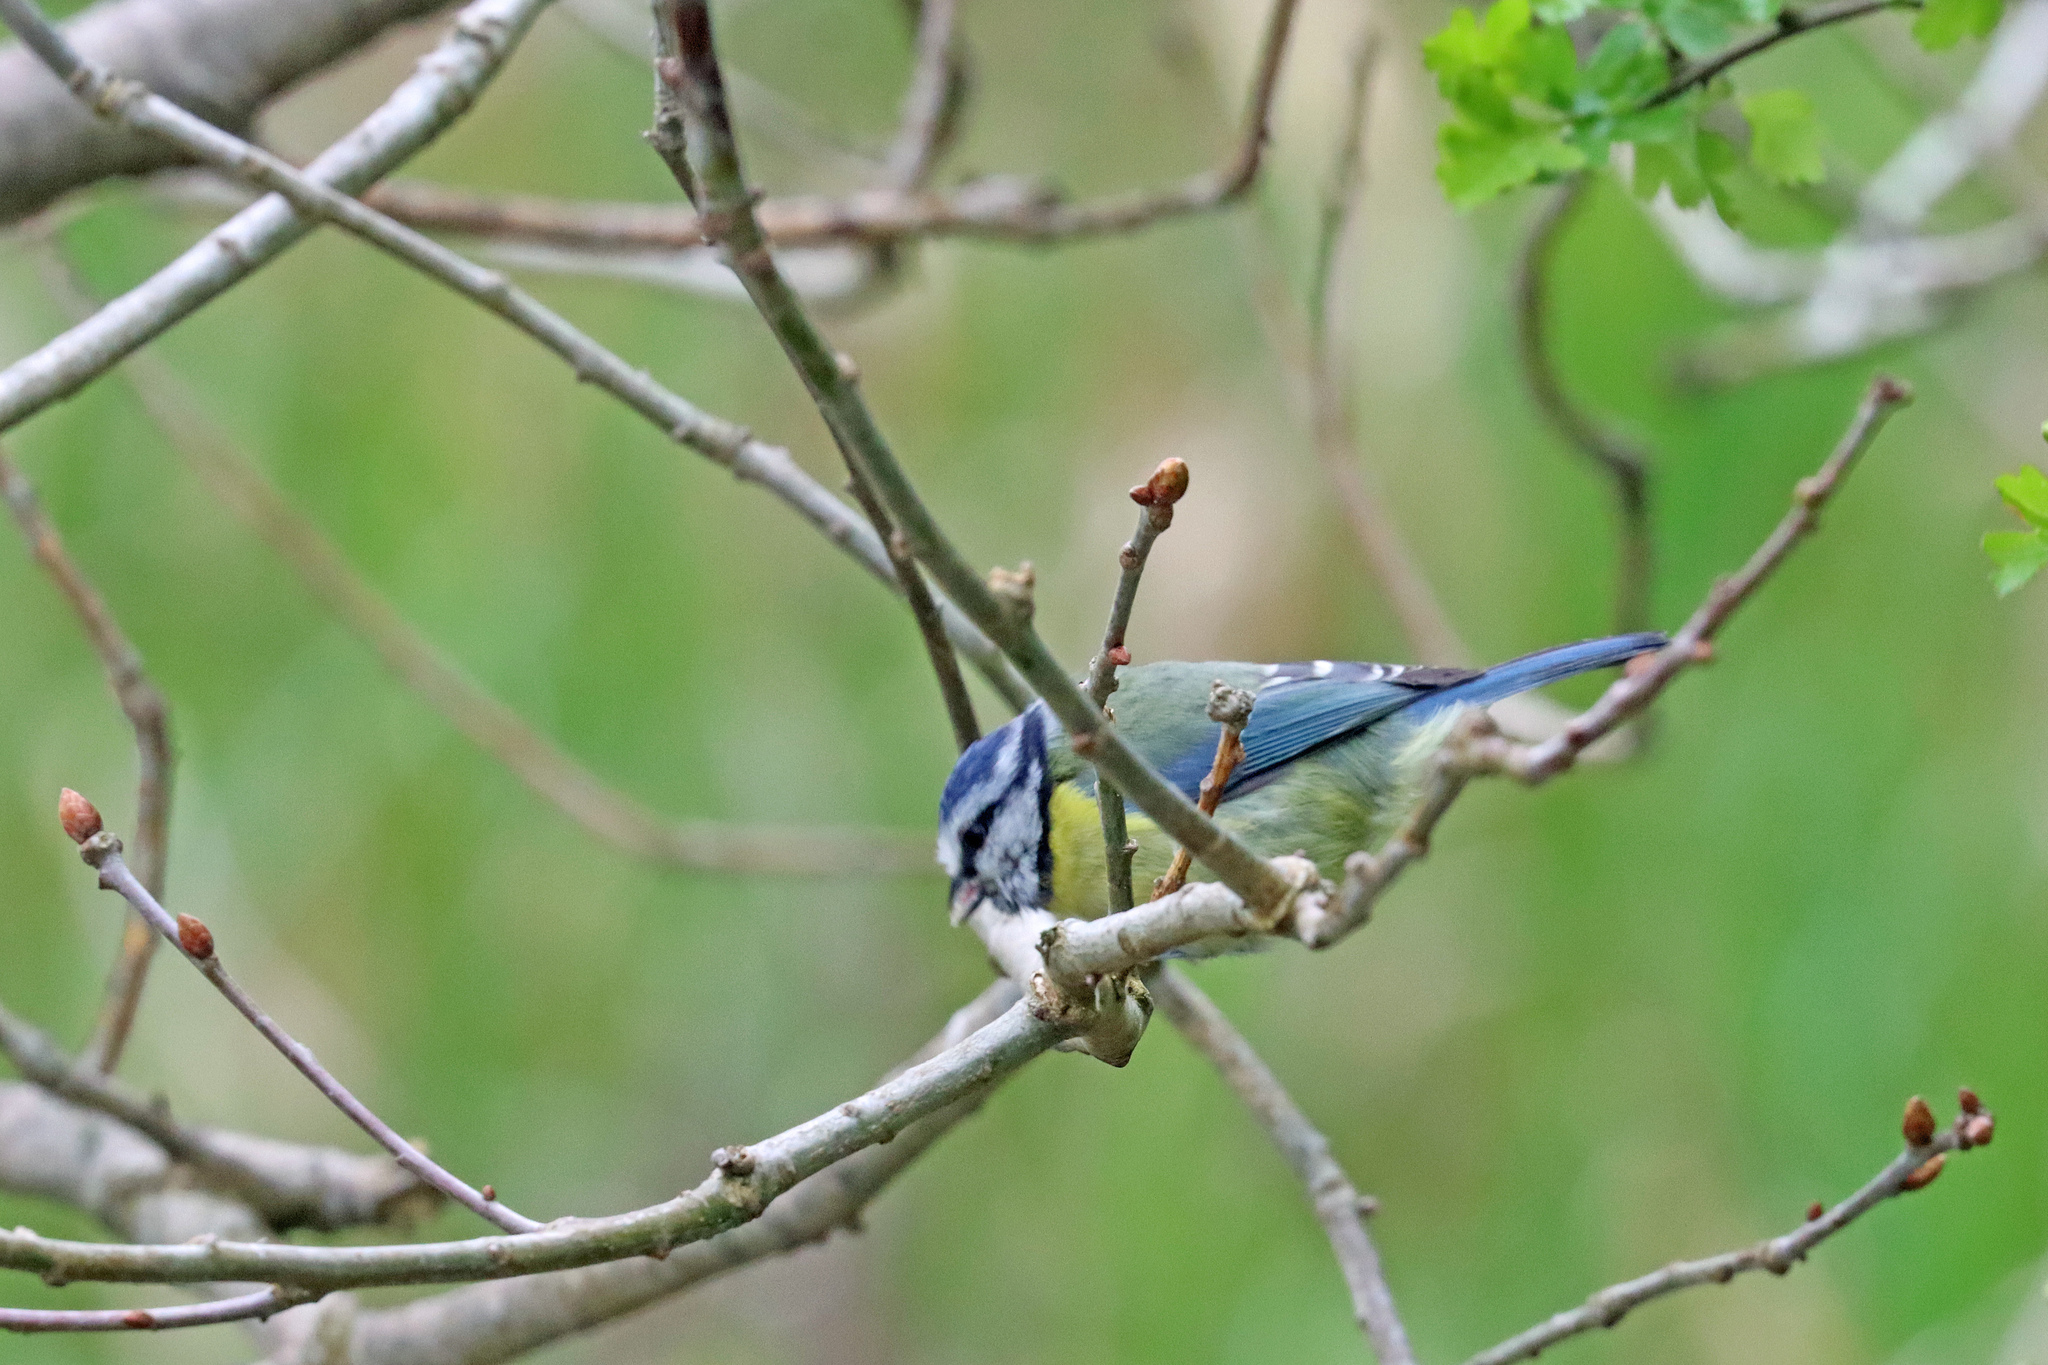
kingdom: Animalia
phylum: Chordata
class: Aves
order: Passeriformes
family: Paridae
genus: Cyanistes
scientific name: Cyanistes caeruleus
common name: Eurasian blue tit
